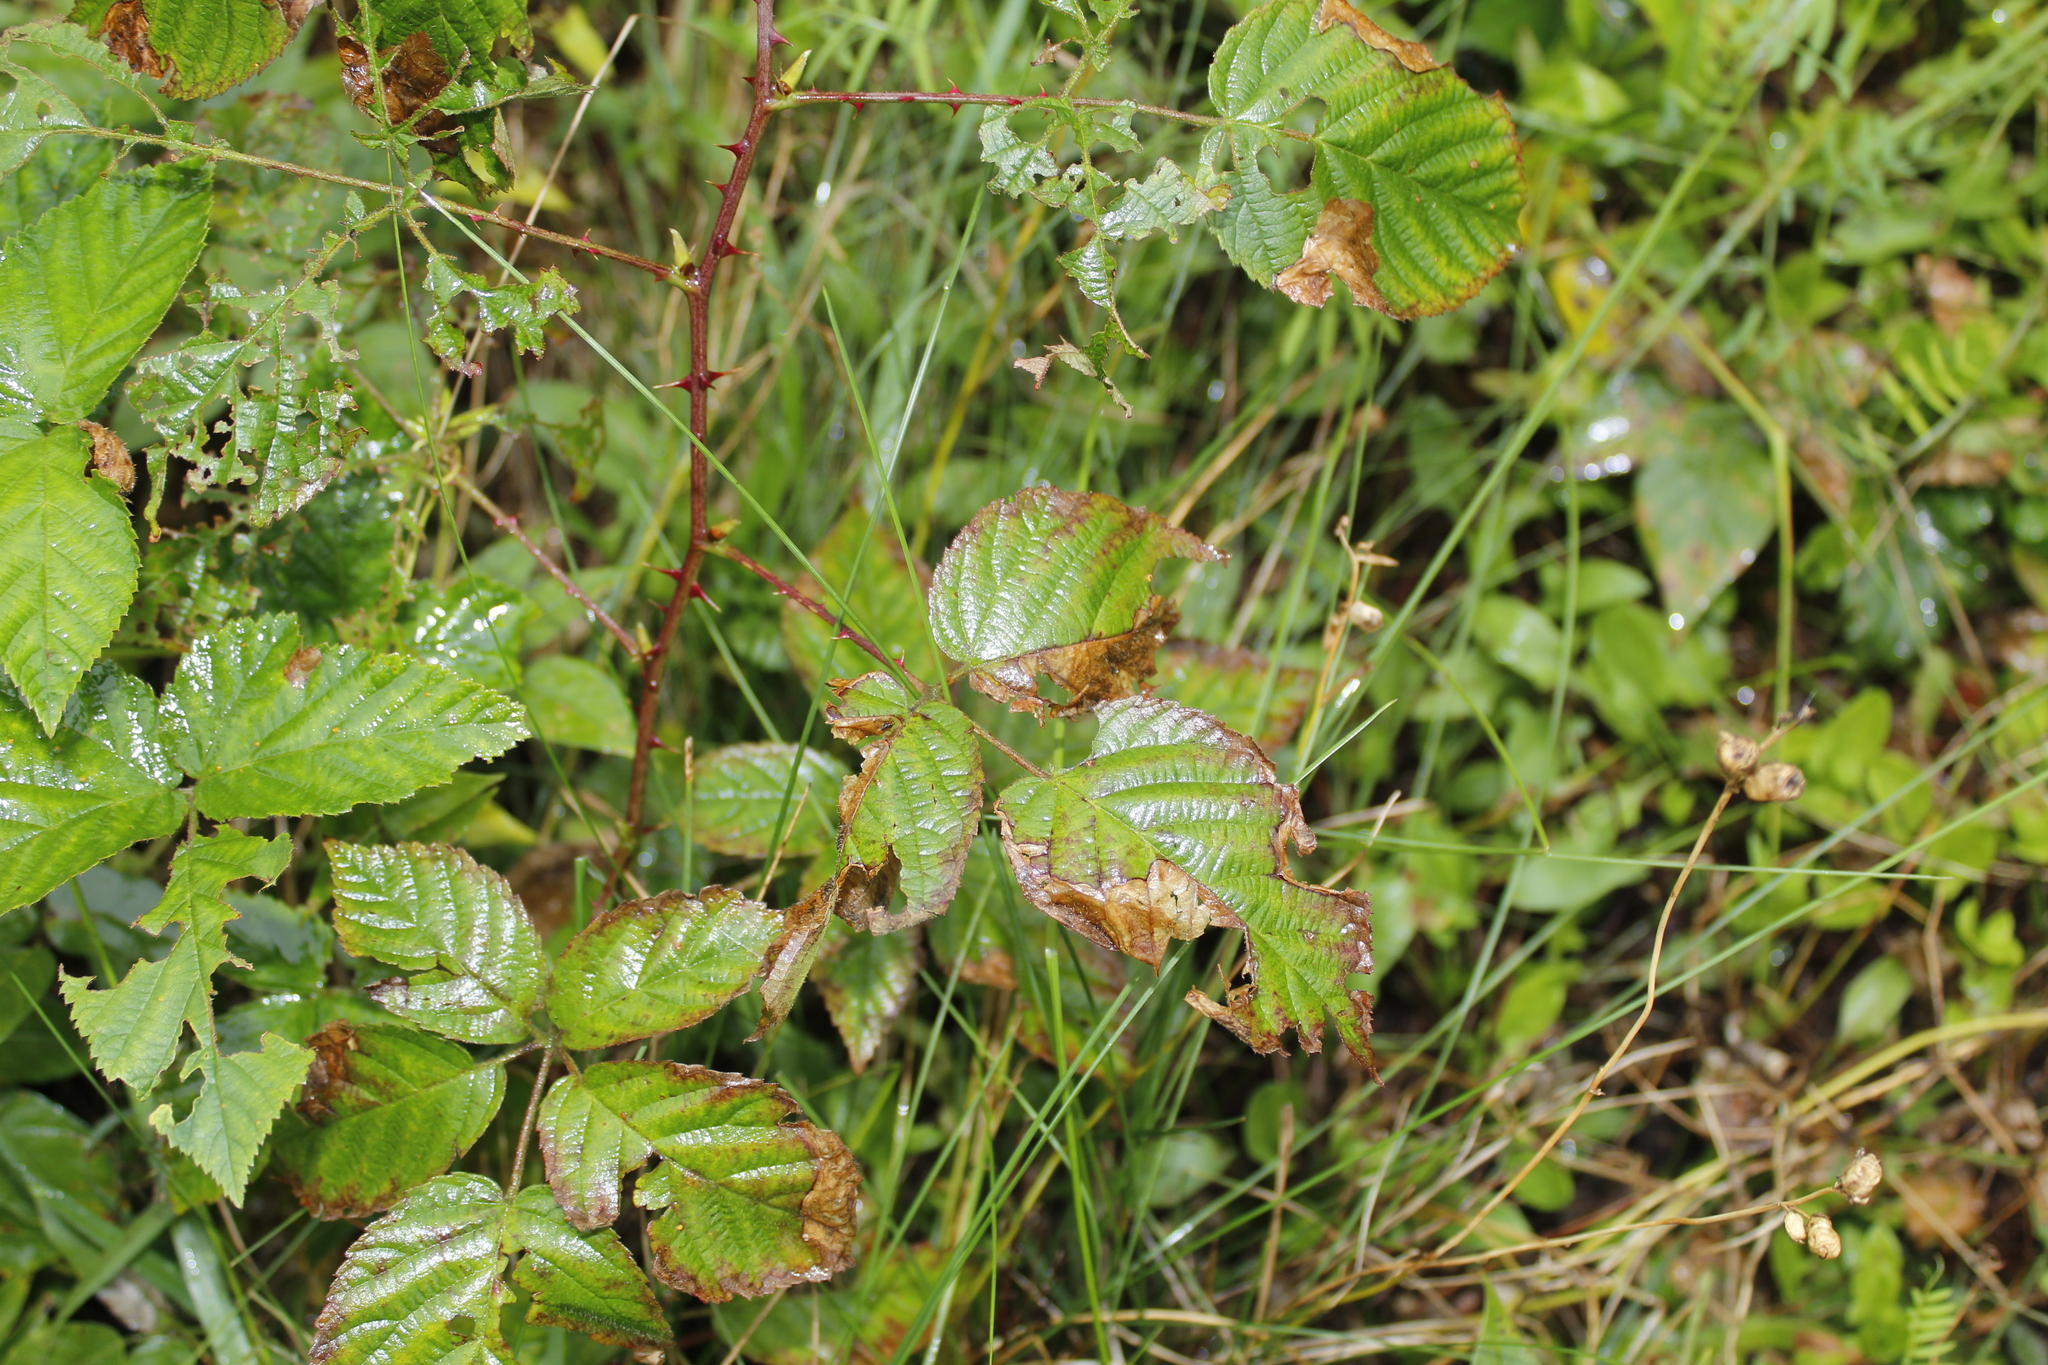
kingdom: Animalia
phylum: Arthropoda
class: Insecta
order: Hymenoptera
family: Tenthredinidae
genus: Metallus
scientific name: Metallus rohweri
